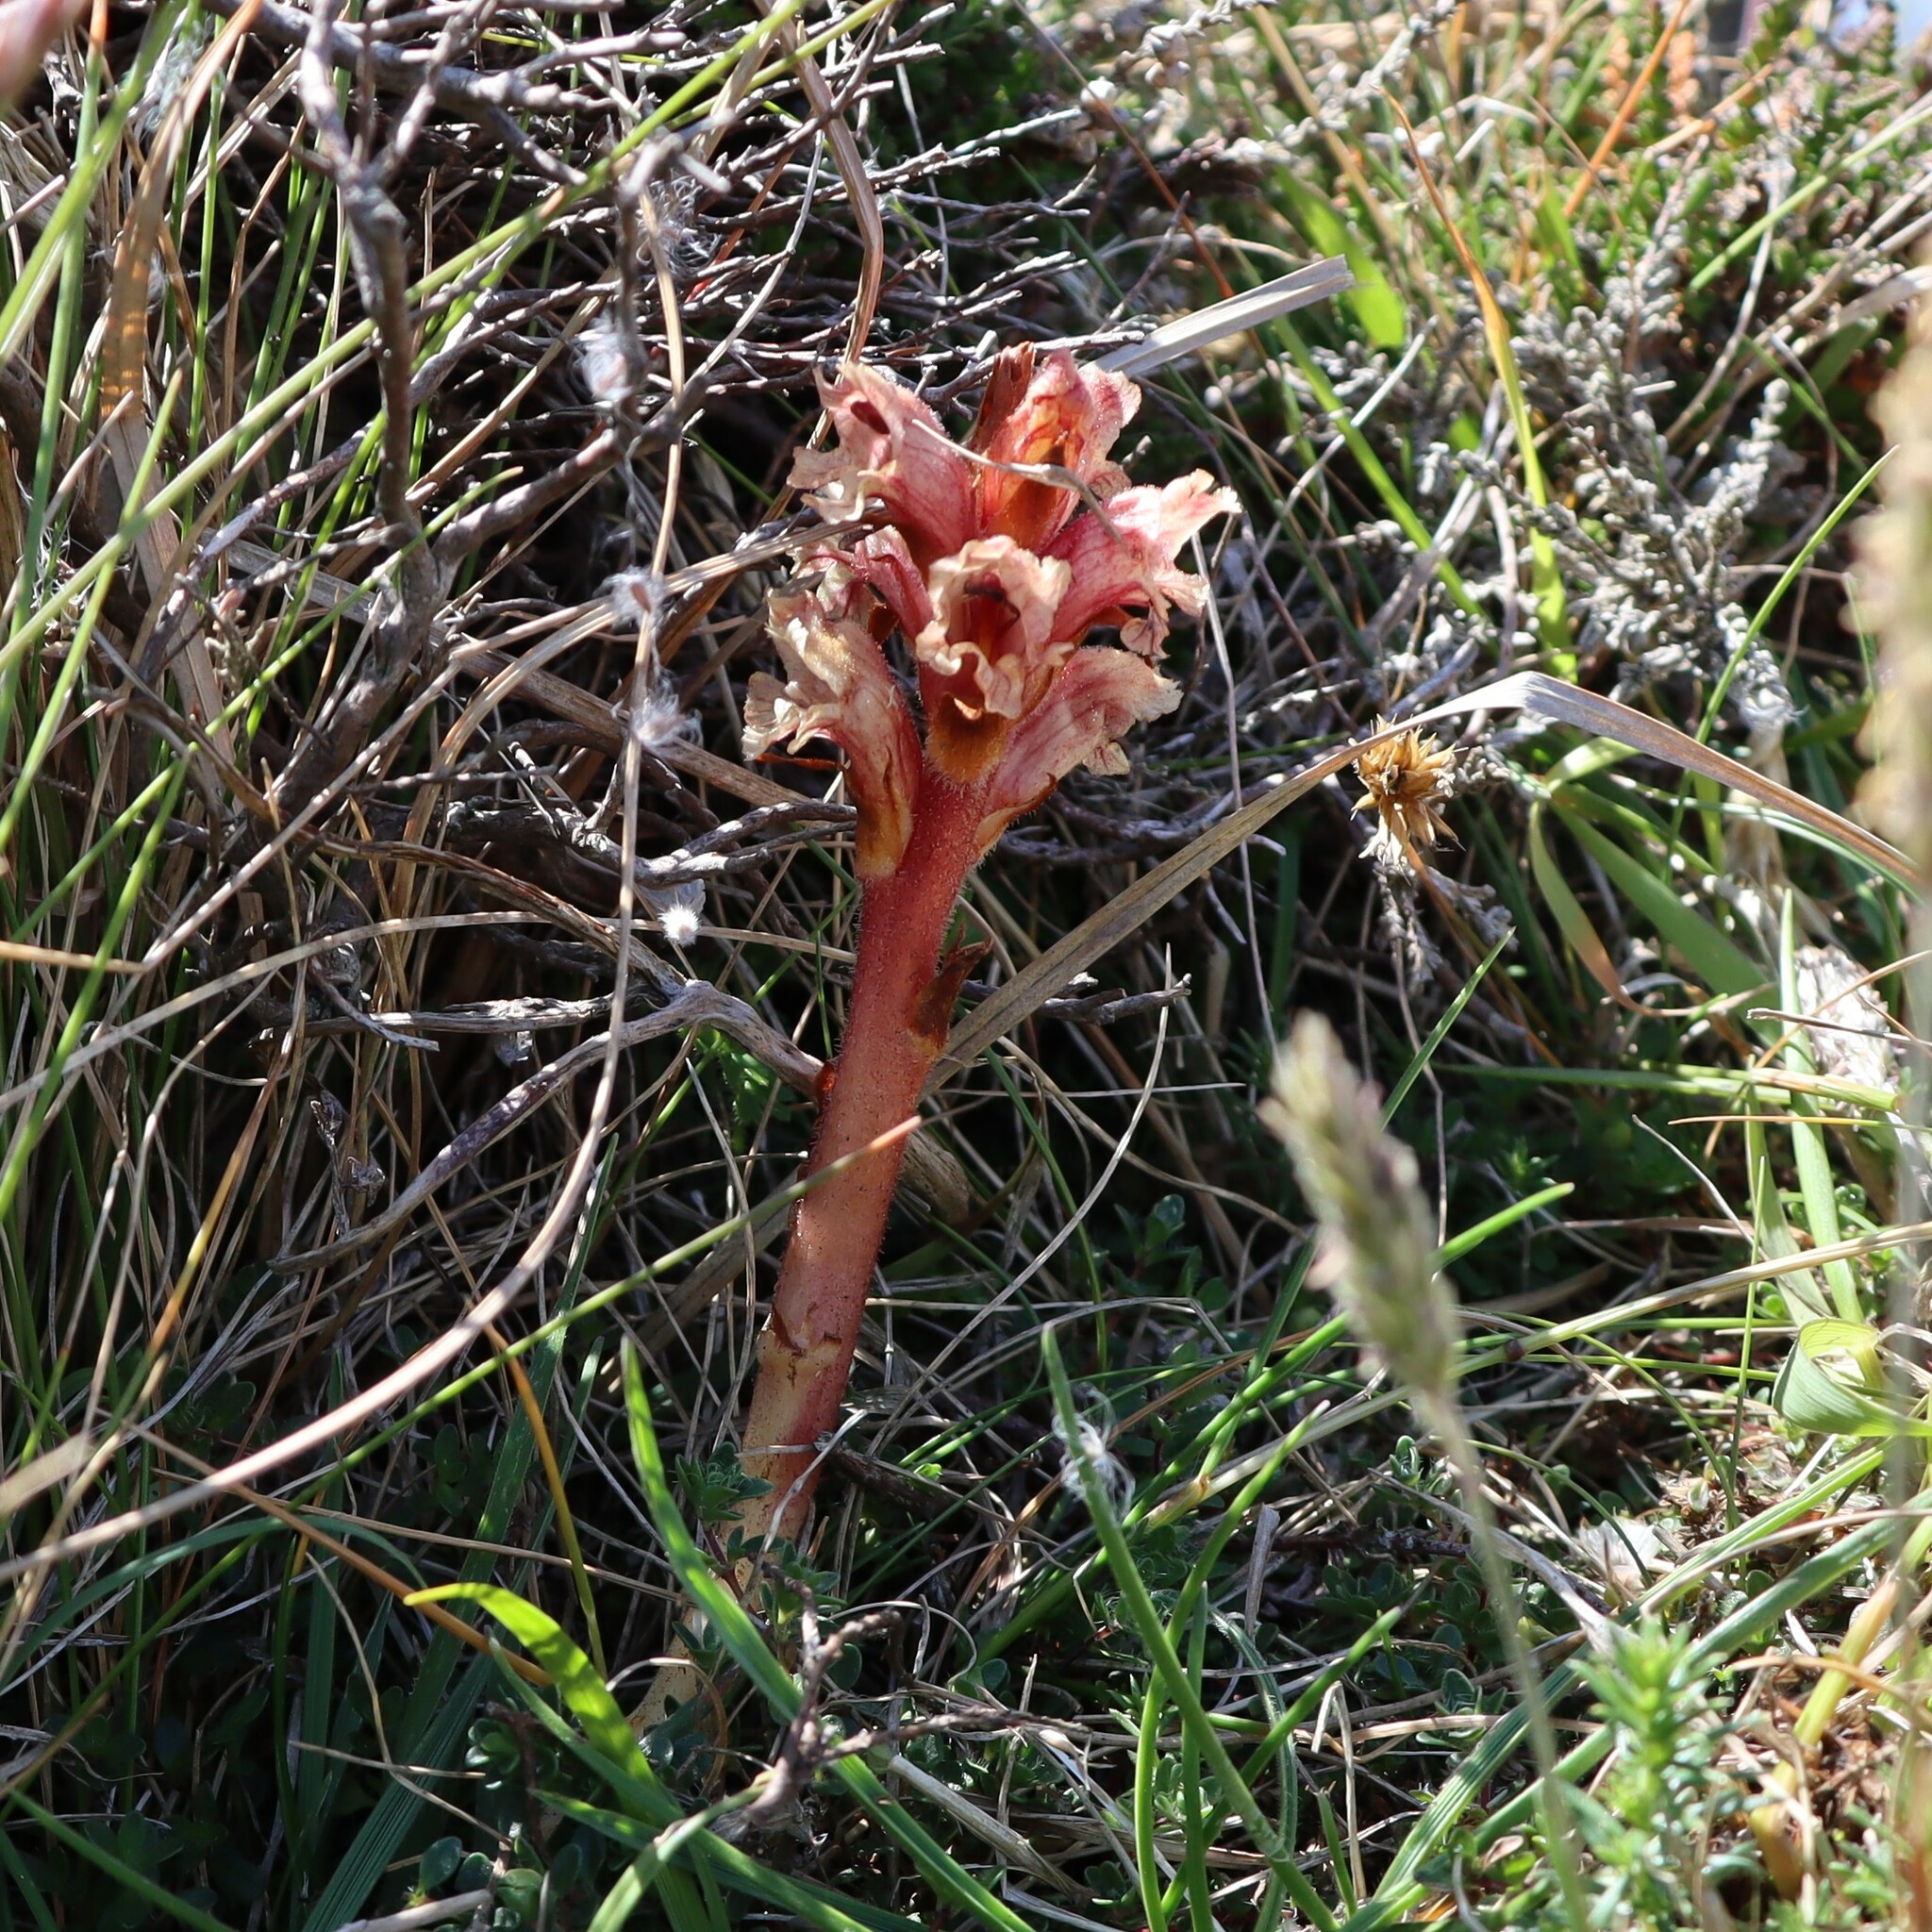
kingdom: Plantae
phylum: Tracheophyta
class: Magnoliopsida
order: Lamiales
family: Orobanchaceae
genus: Orobanche
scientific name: Orobanche alba
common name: Thyme broomrape
